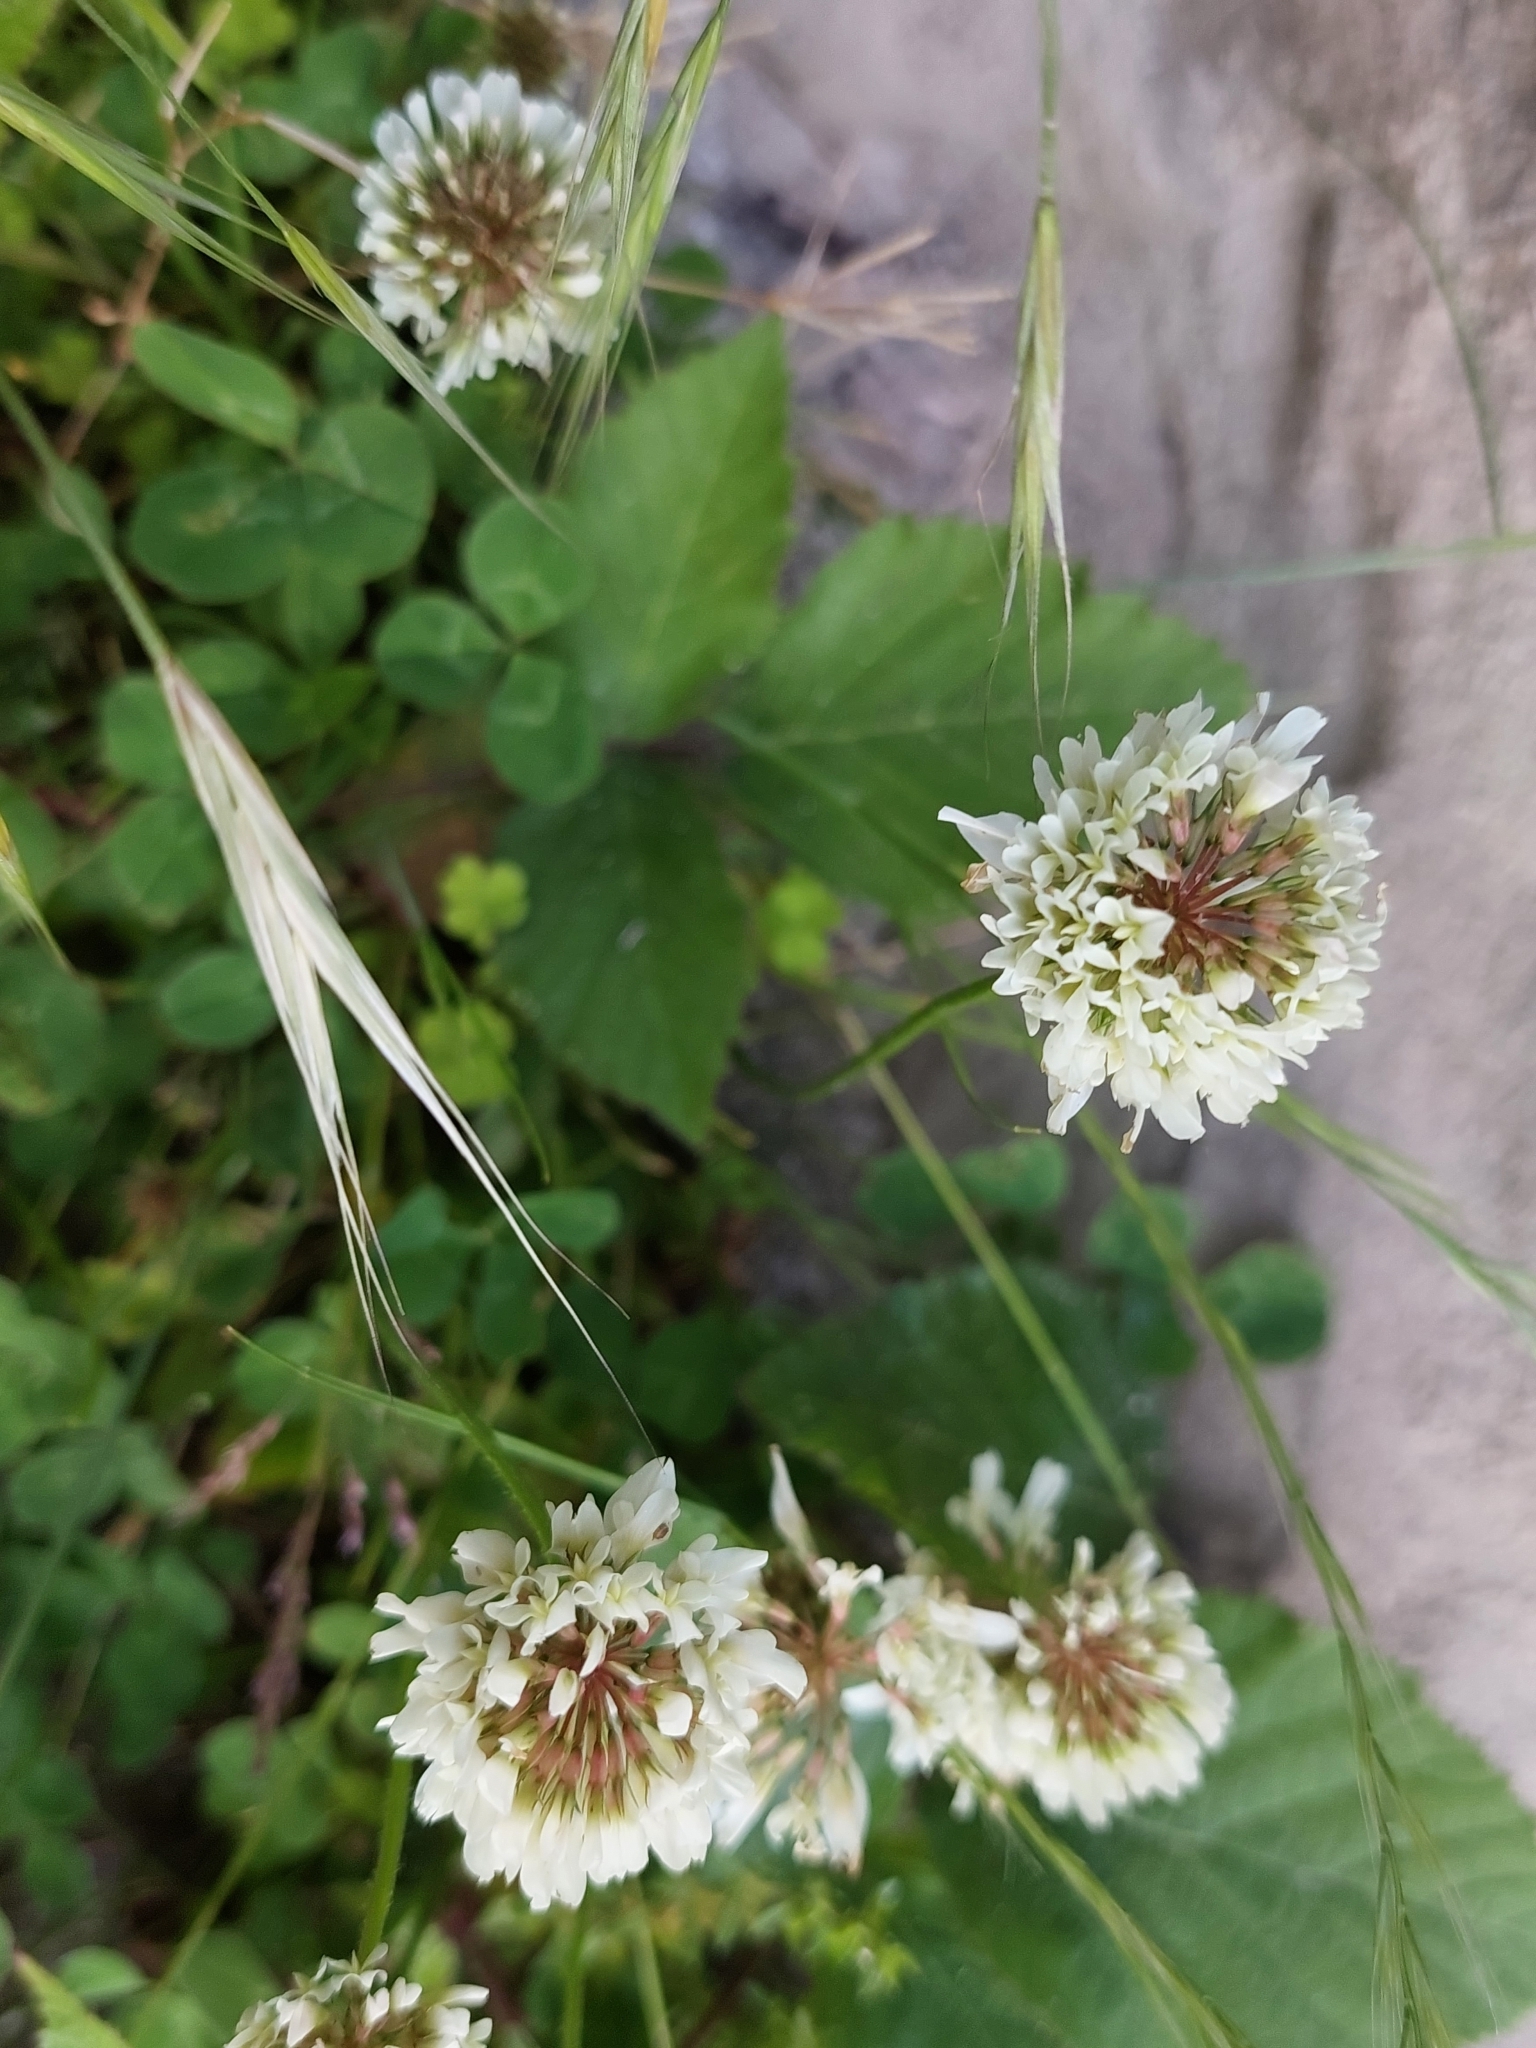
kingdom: Plantae
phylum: Tracheophyta
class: Magnoliopsida
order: Fabales
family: Fabaceae
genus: Trifolium
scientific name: Trifolium repens
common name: White clover
